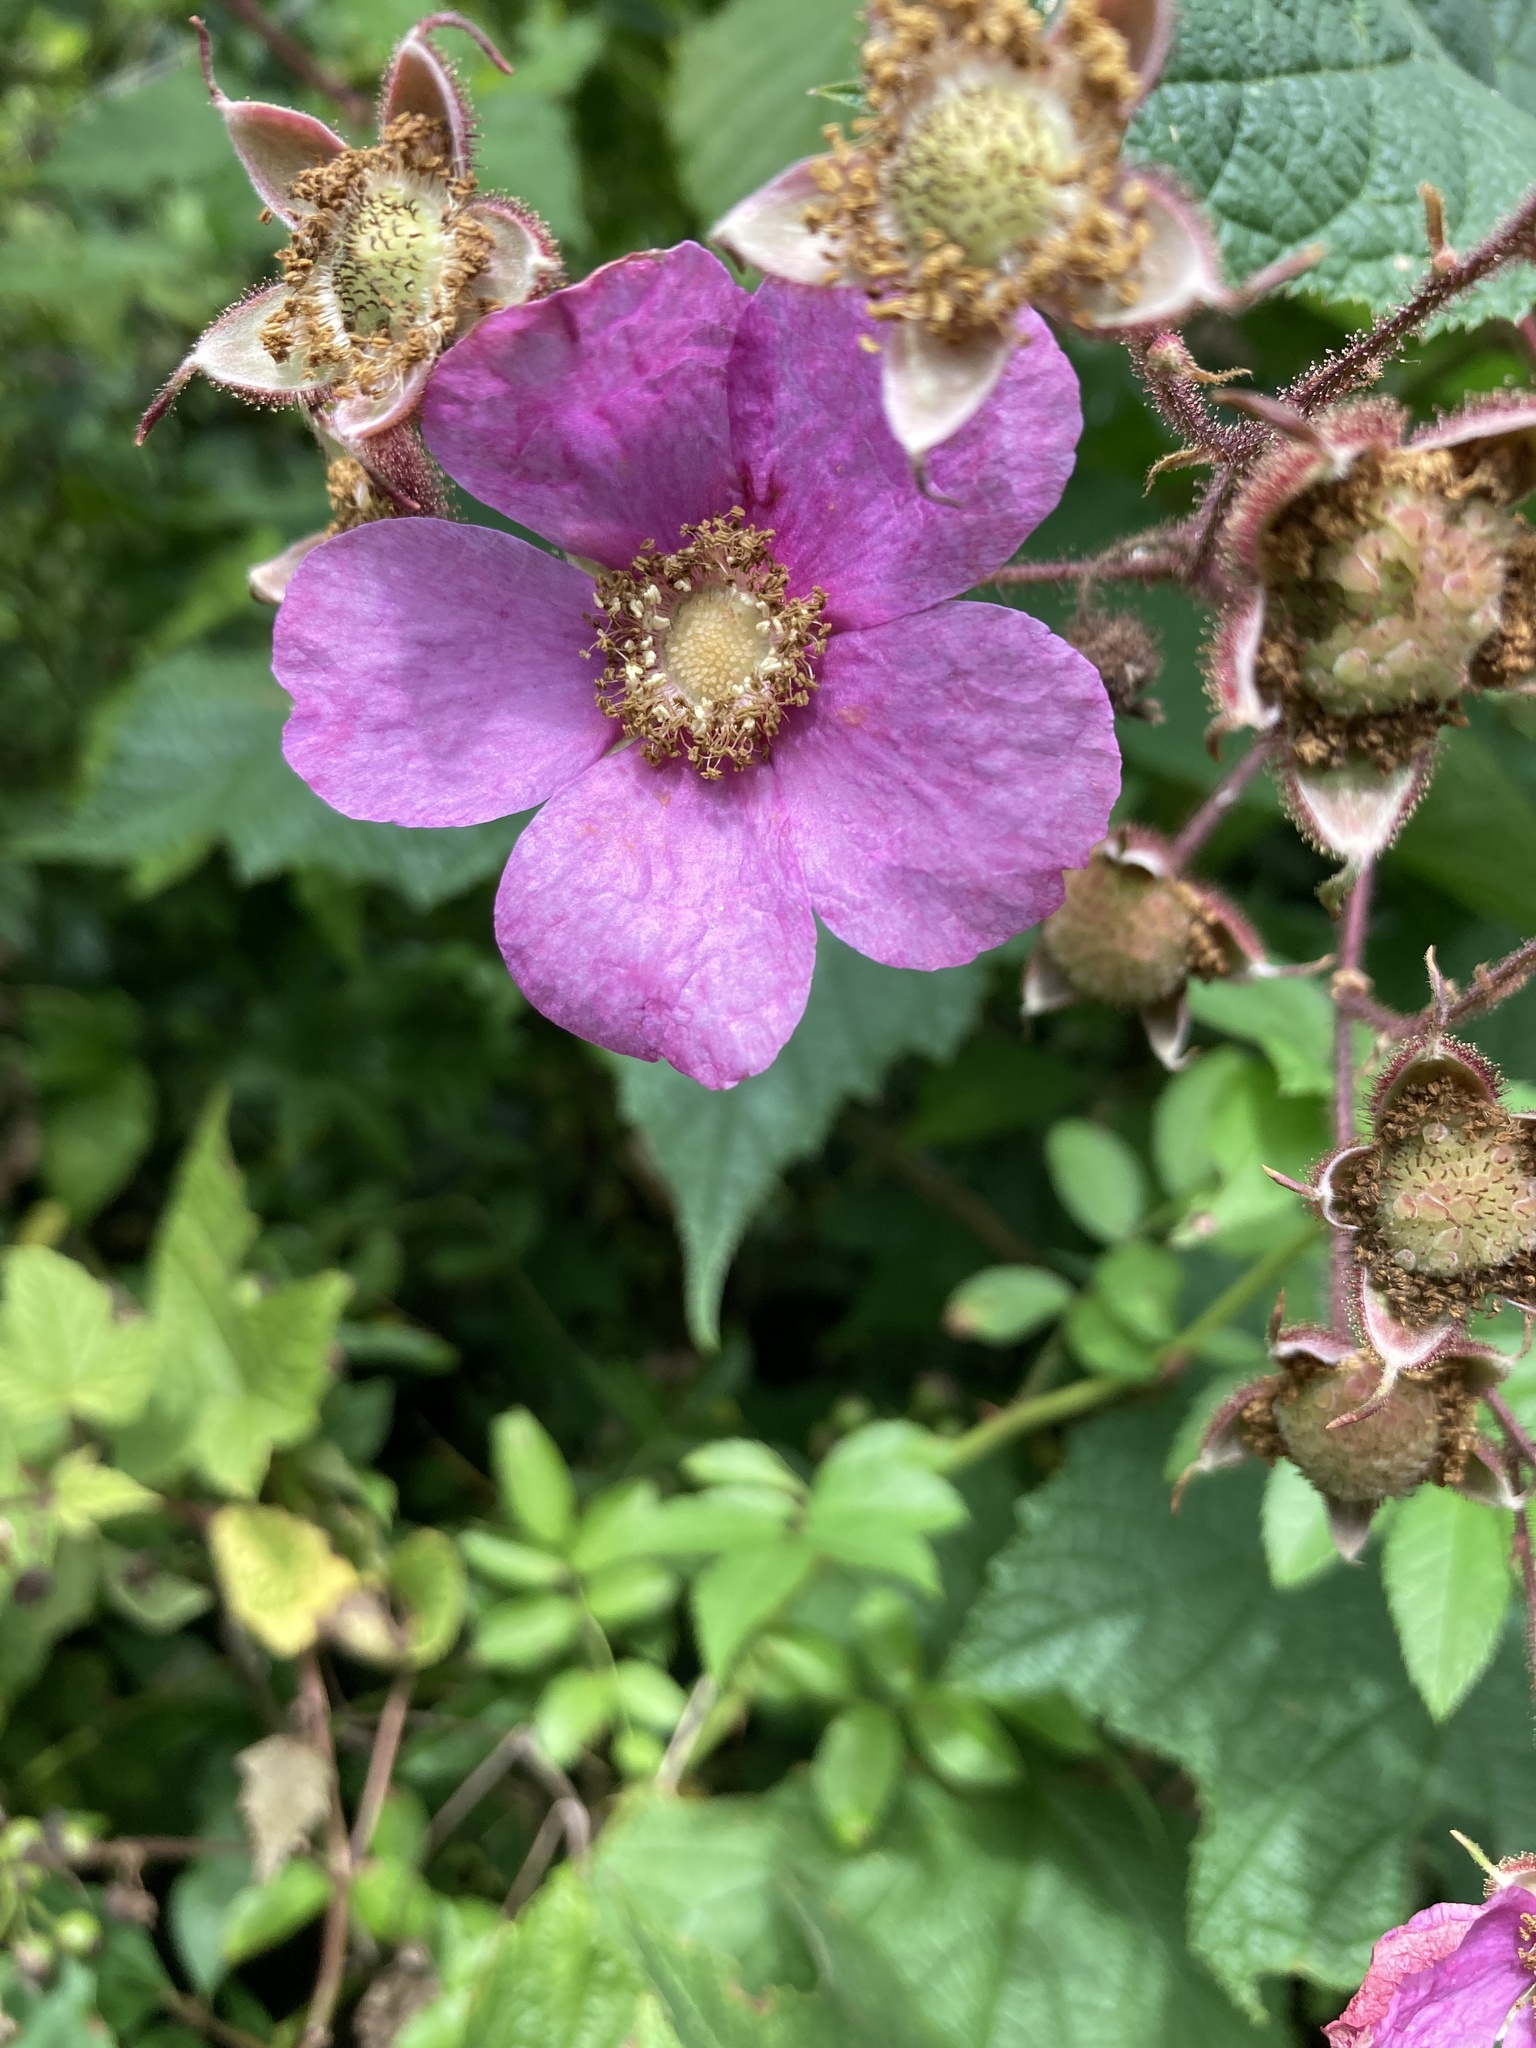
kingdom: Plantae
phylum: Tracheophyta
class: Magnoliopsida
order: Rosales
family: Rosaceae
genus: Rubus
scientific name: Rubus odoratus
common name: Purple-flowered raspberry
